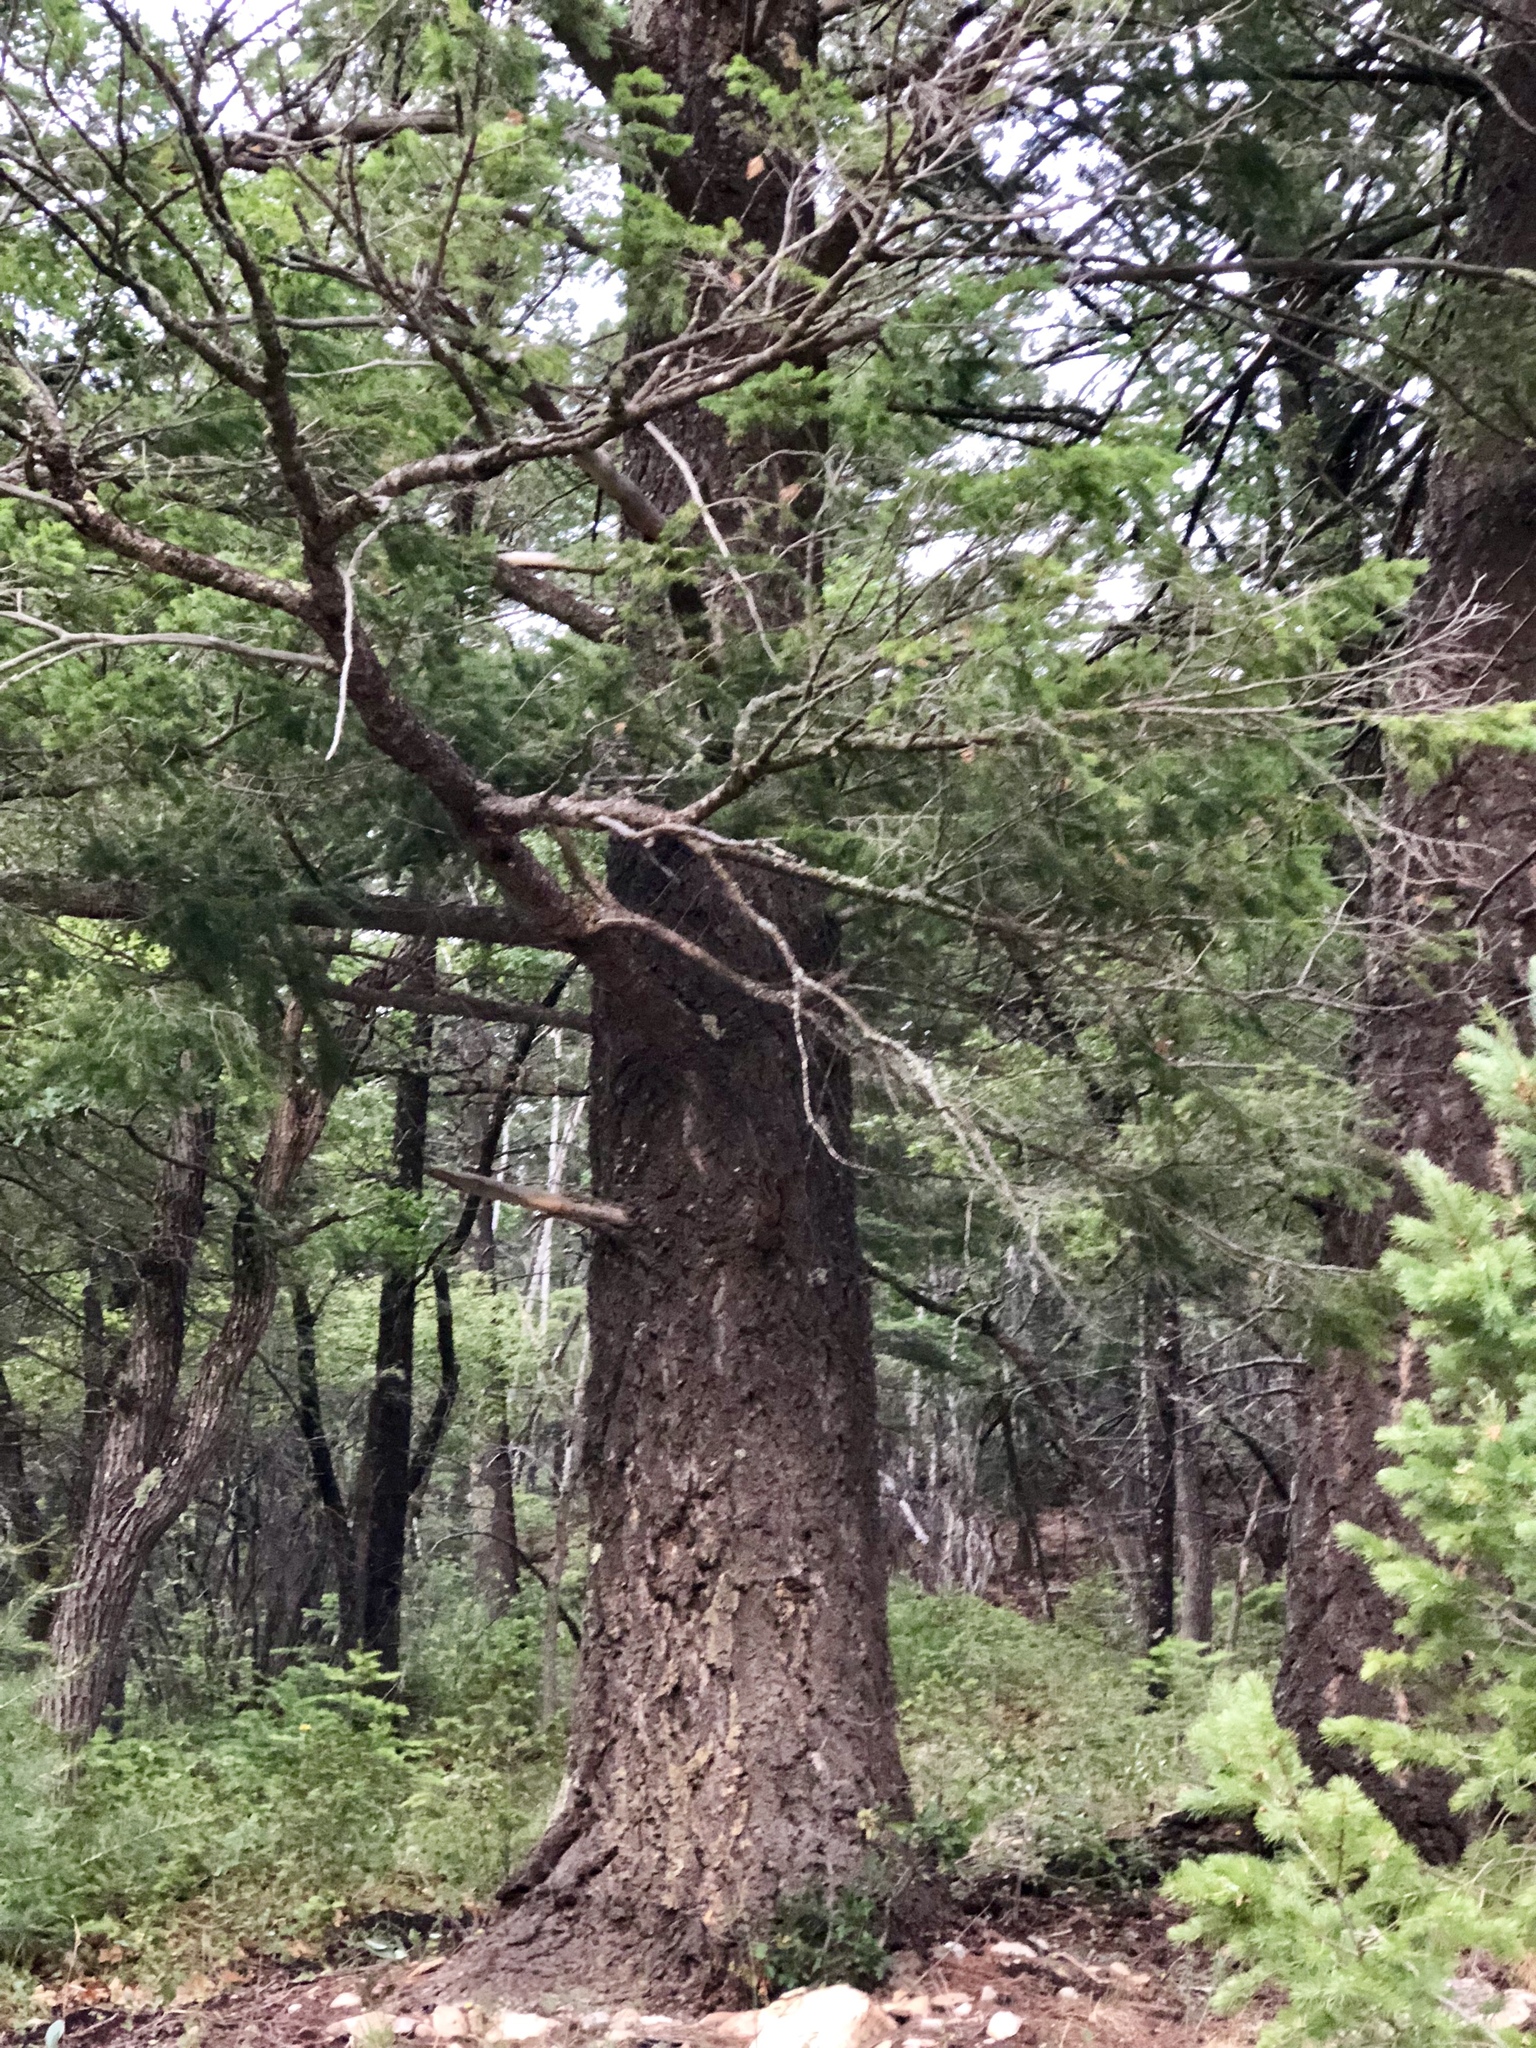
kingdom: Plantae
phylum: Tracheophyta
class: Pinopsida
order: Pinales
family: Pinaceae
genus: Pseudotsuga
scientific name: Pseudotsuga menziesii
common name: Douglas fir
